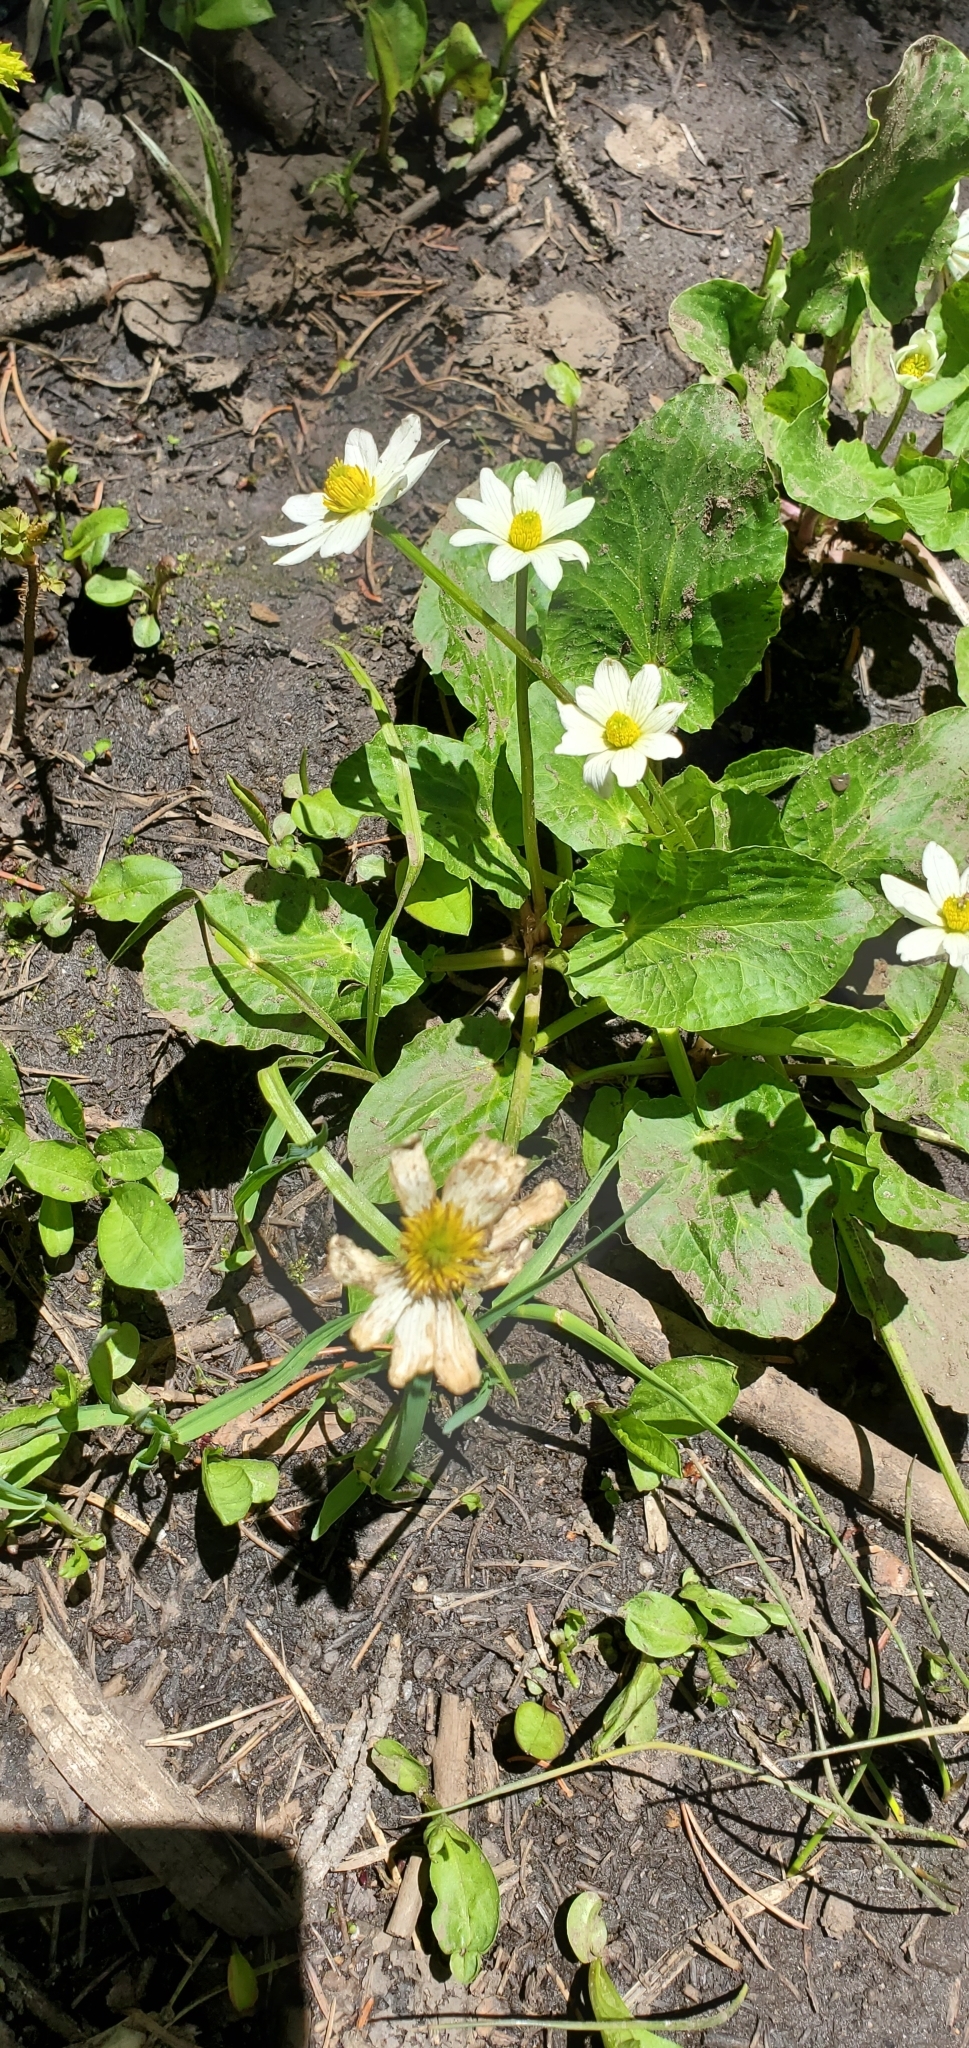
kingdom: Plantae
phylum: Tracheophyta
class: Magnoliopsida
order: Ranunculales
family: Ranunculaceae
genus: Caltha
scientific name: Caltha leptosepala
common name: Elkslip
